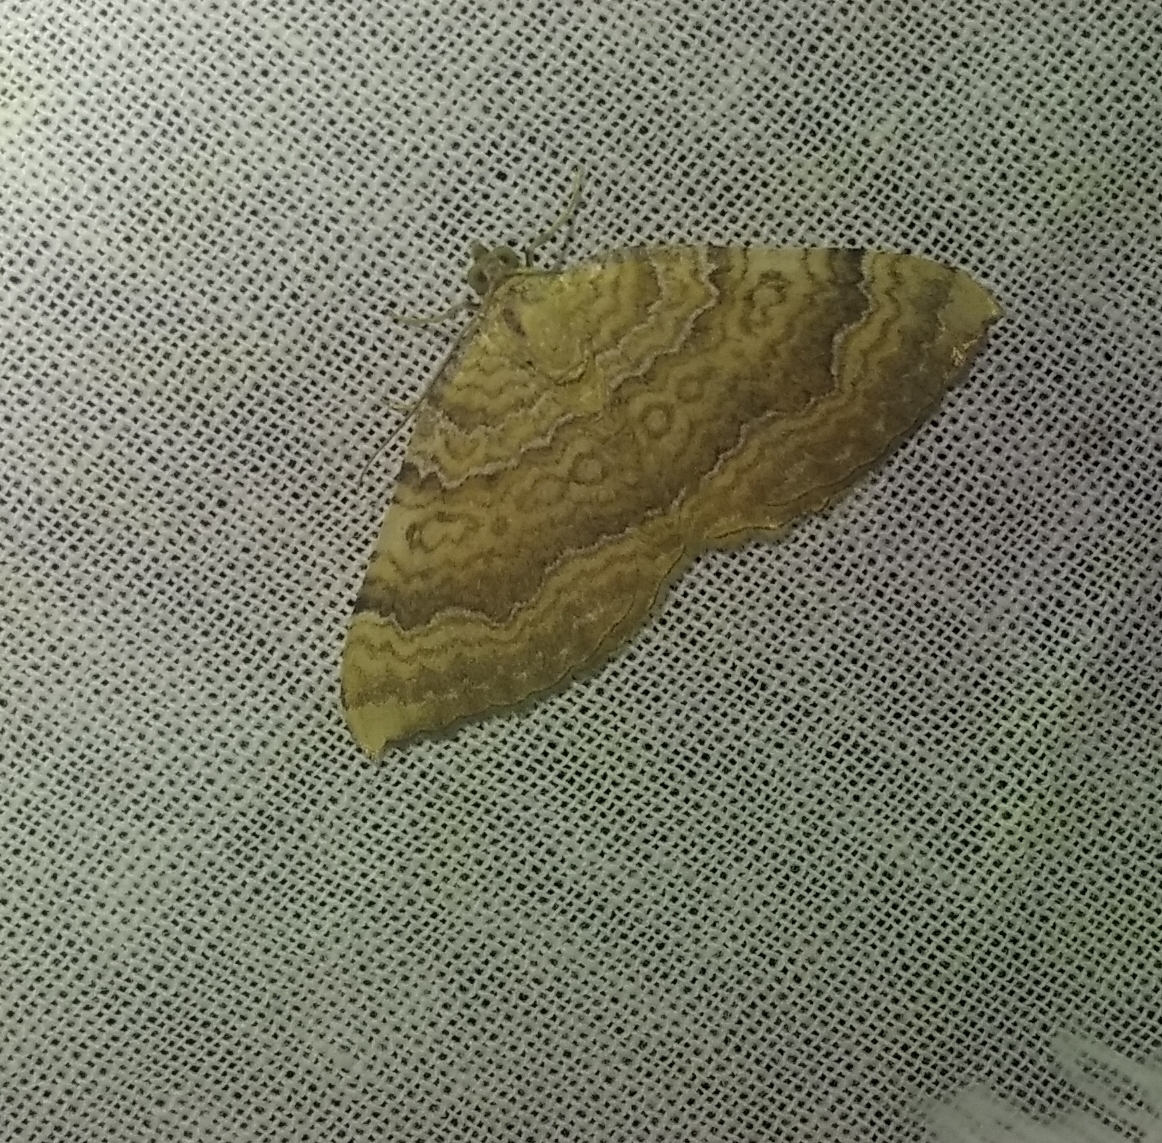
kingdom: Animalia
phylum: Arthropoda
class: Insecta
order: Lepidoptera
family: Geometridae
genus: Camptogramma
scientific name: Camptogramma bilineata
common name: Yellow shell
